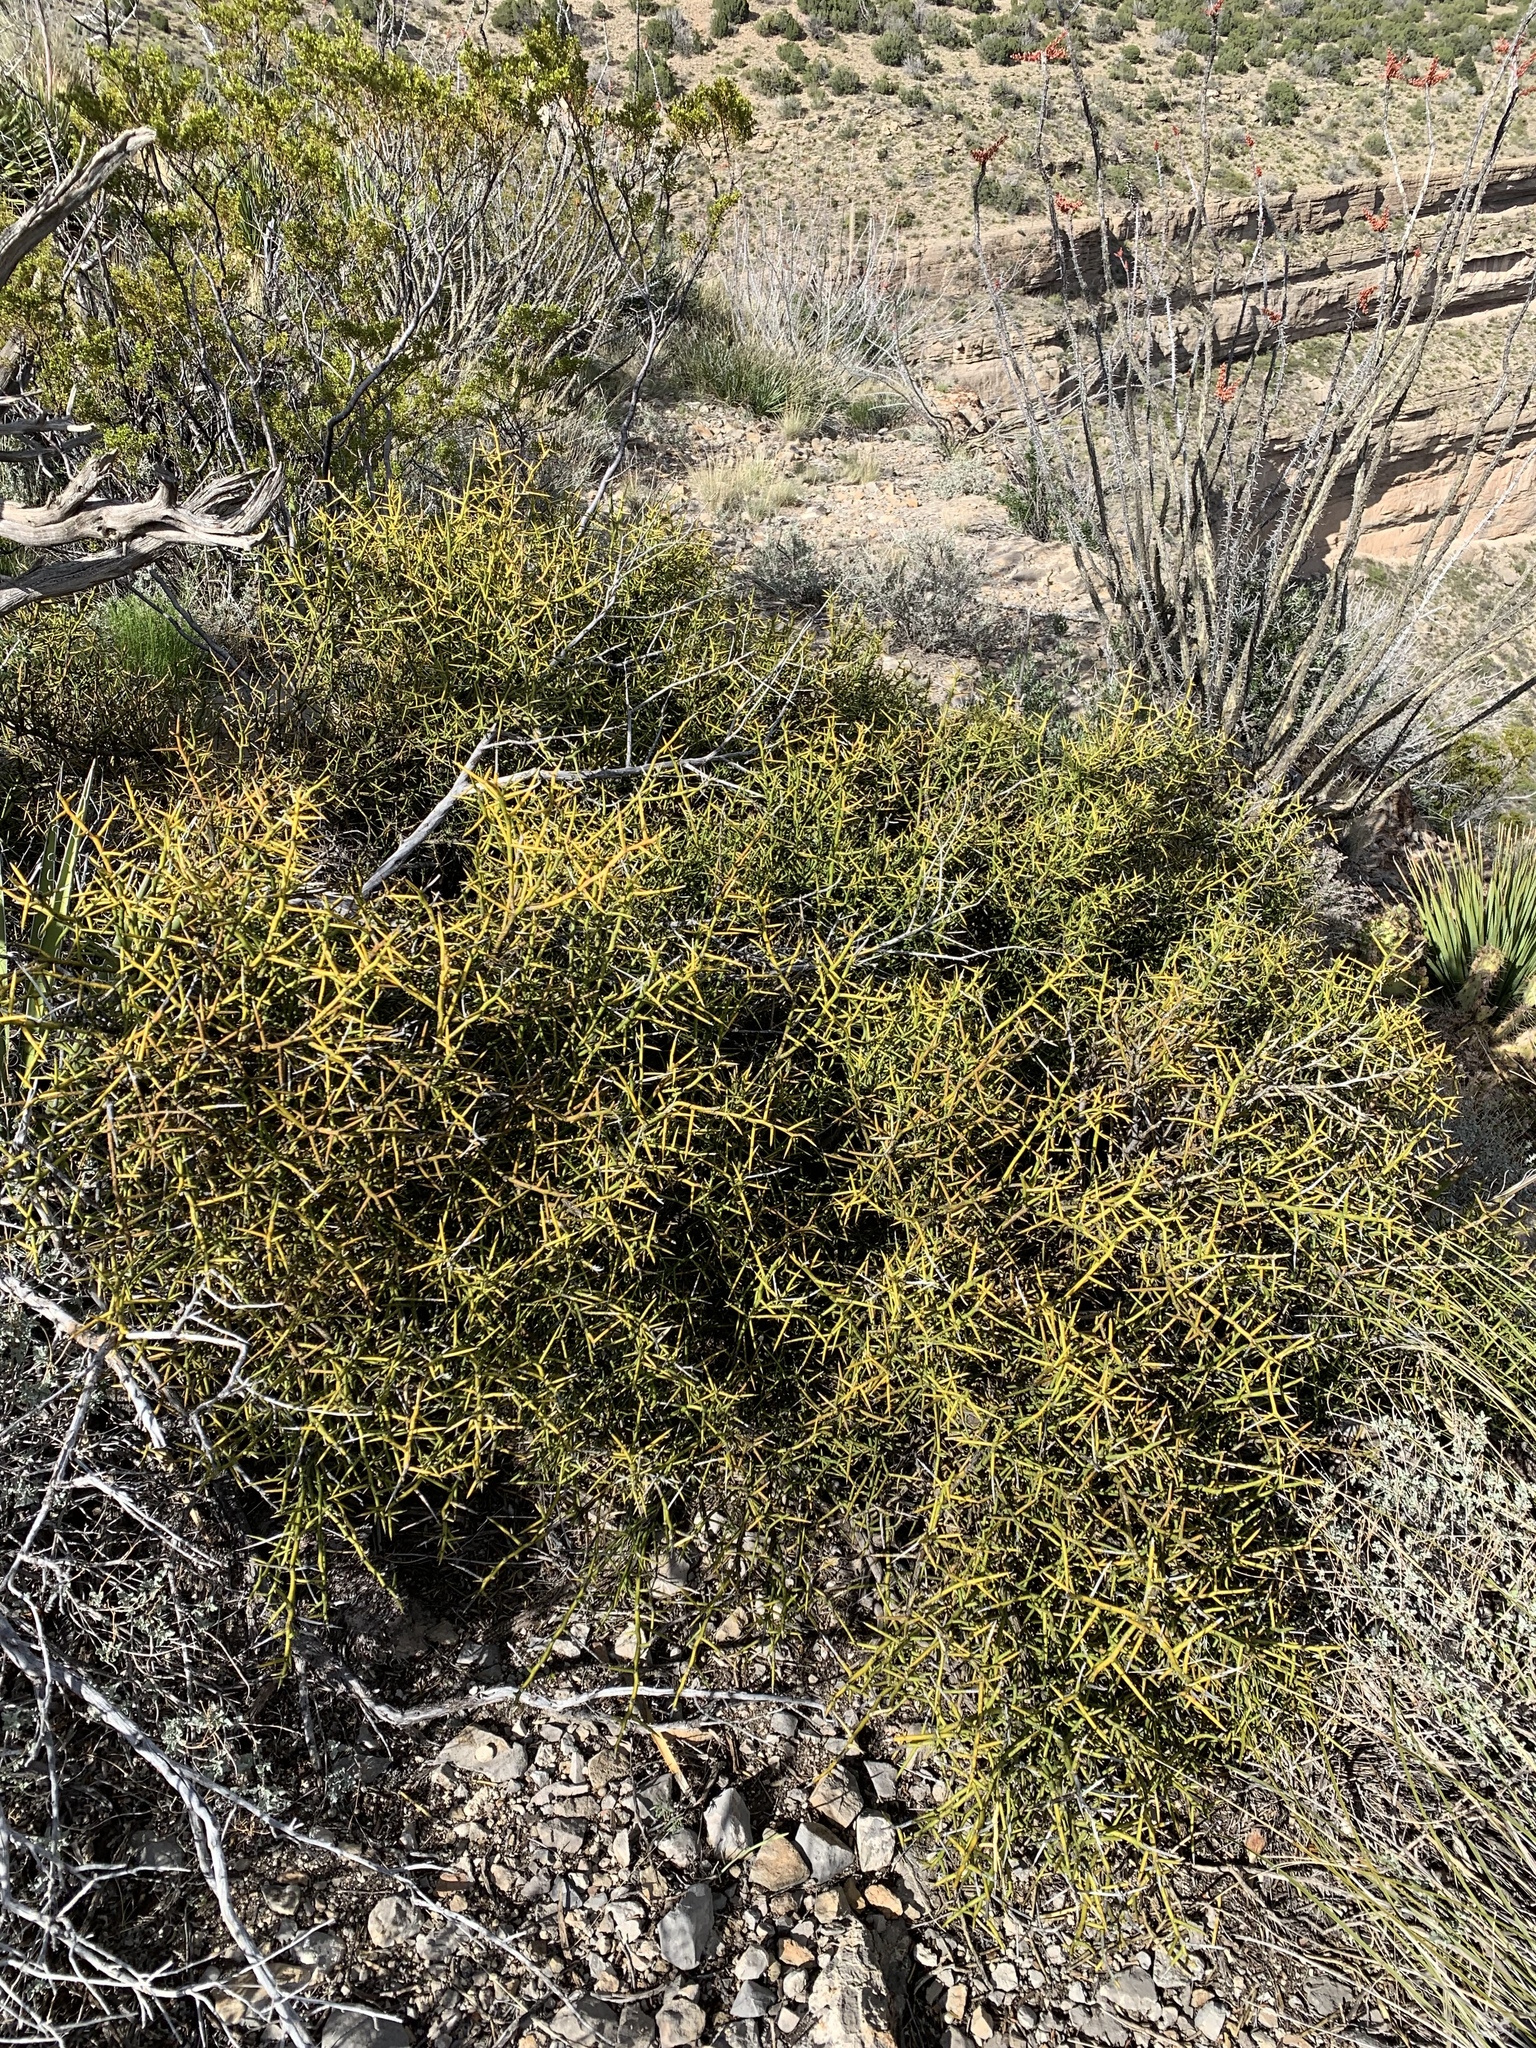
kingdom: Plantae
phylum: Tracheophyta
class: Magnoliopsida
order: Brassicales
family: Koeberliniaceae
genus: Koeberlinia
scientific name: Koeberlinia spinosa
